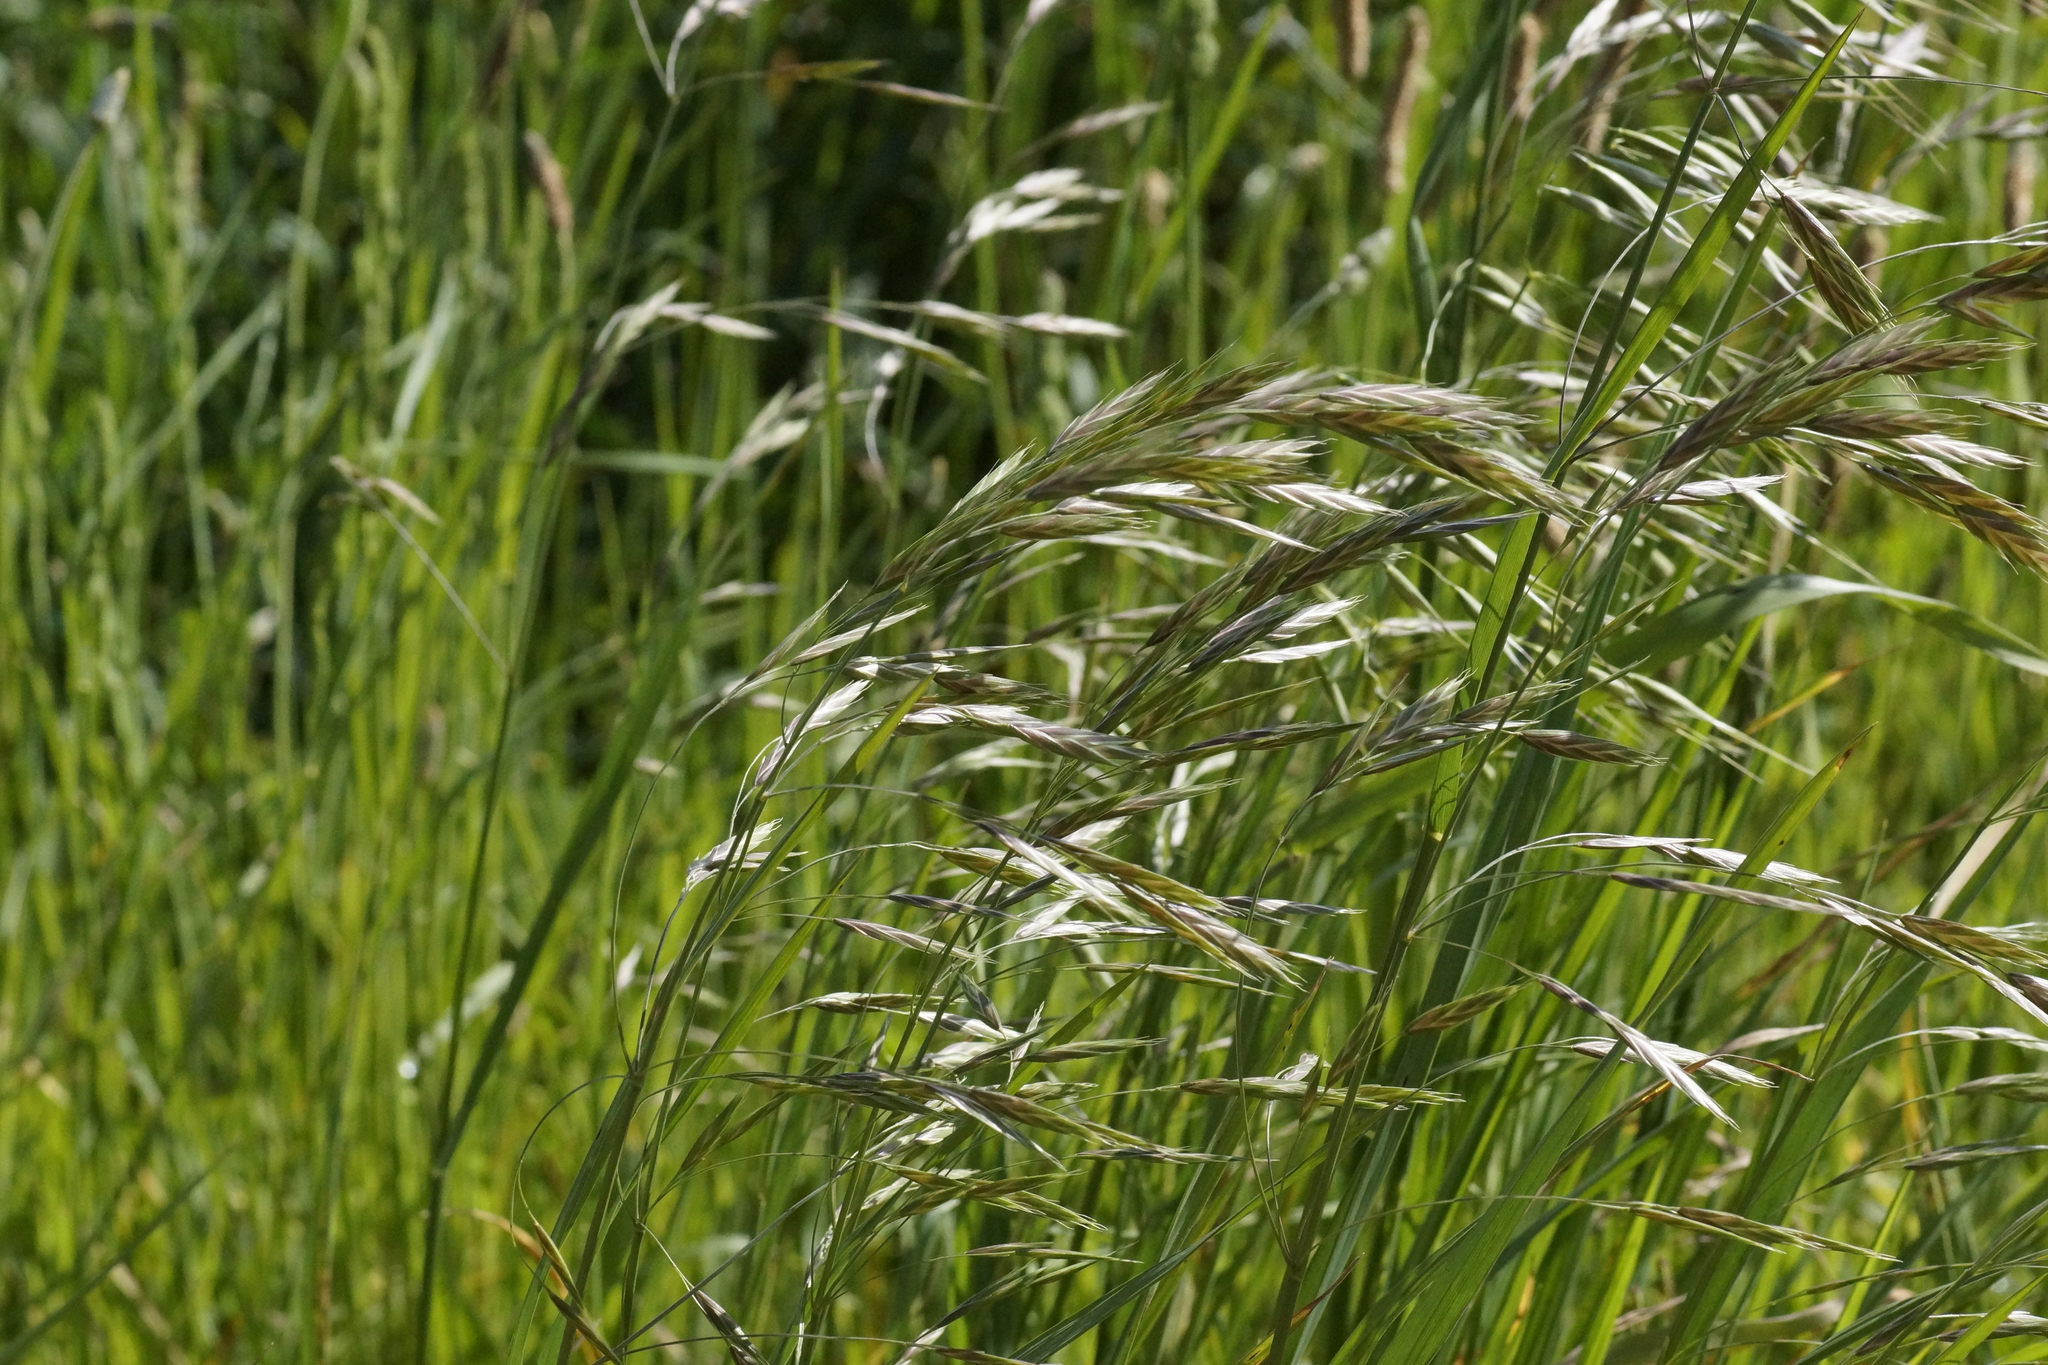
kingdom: Plantae
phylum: Tracheophyta
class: Liliopsida
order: Poales
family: Poaceae
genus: Bromus
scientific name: Bromus catharticus
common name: Rescuegrass
